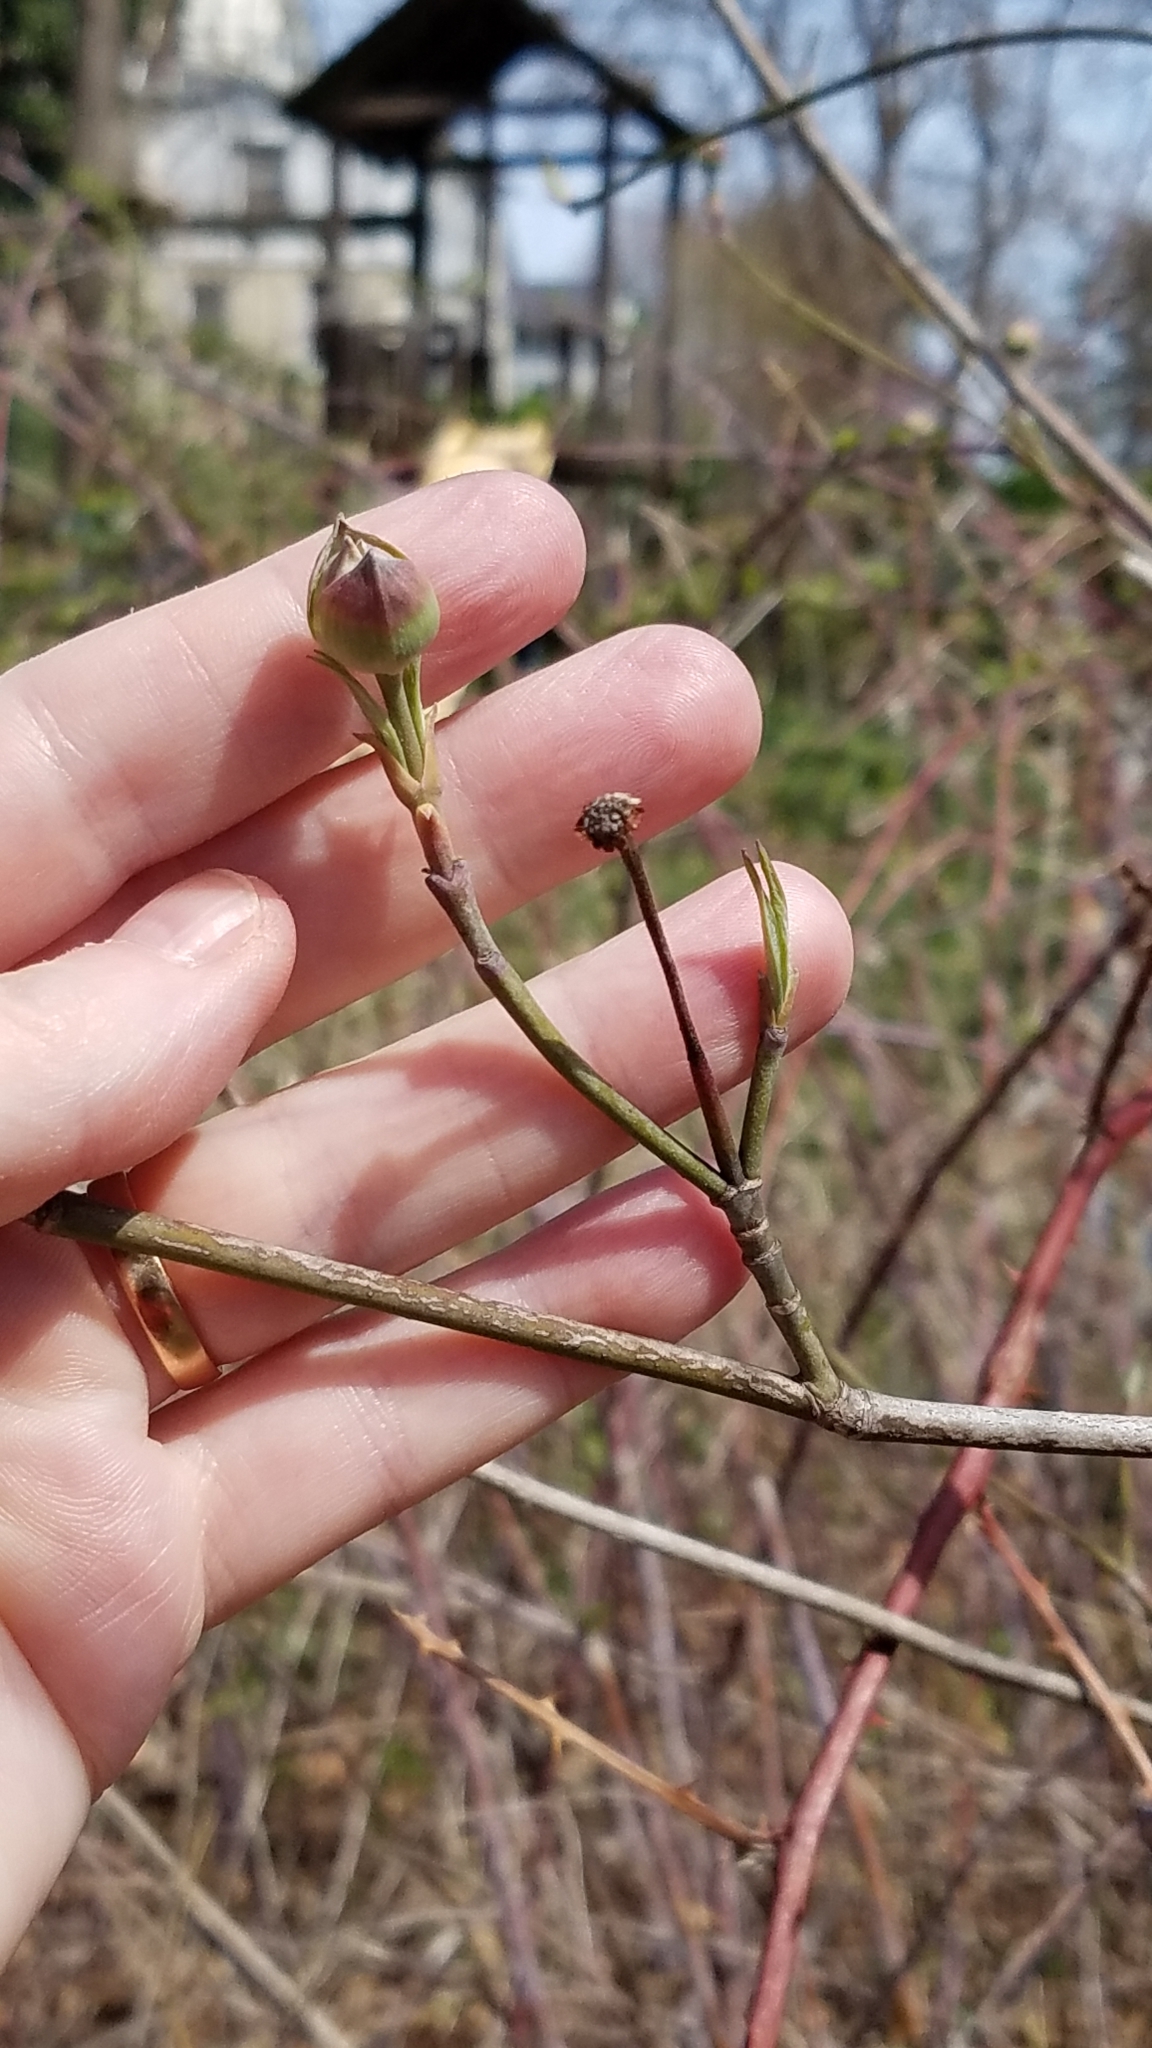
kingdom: Plantae
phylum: Tracheophyta
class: Magnoliopsida
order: Cornales
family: Cornaceae
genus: Cornus
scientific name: Cornus florida
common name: Flowering dogwood
